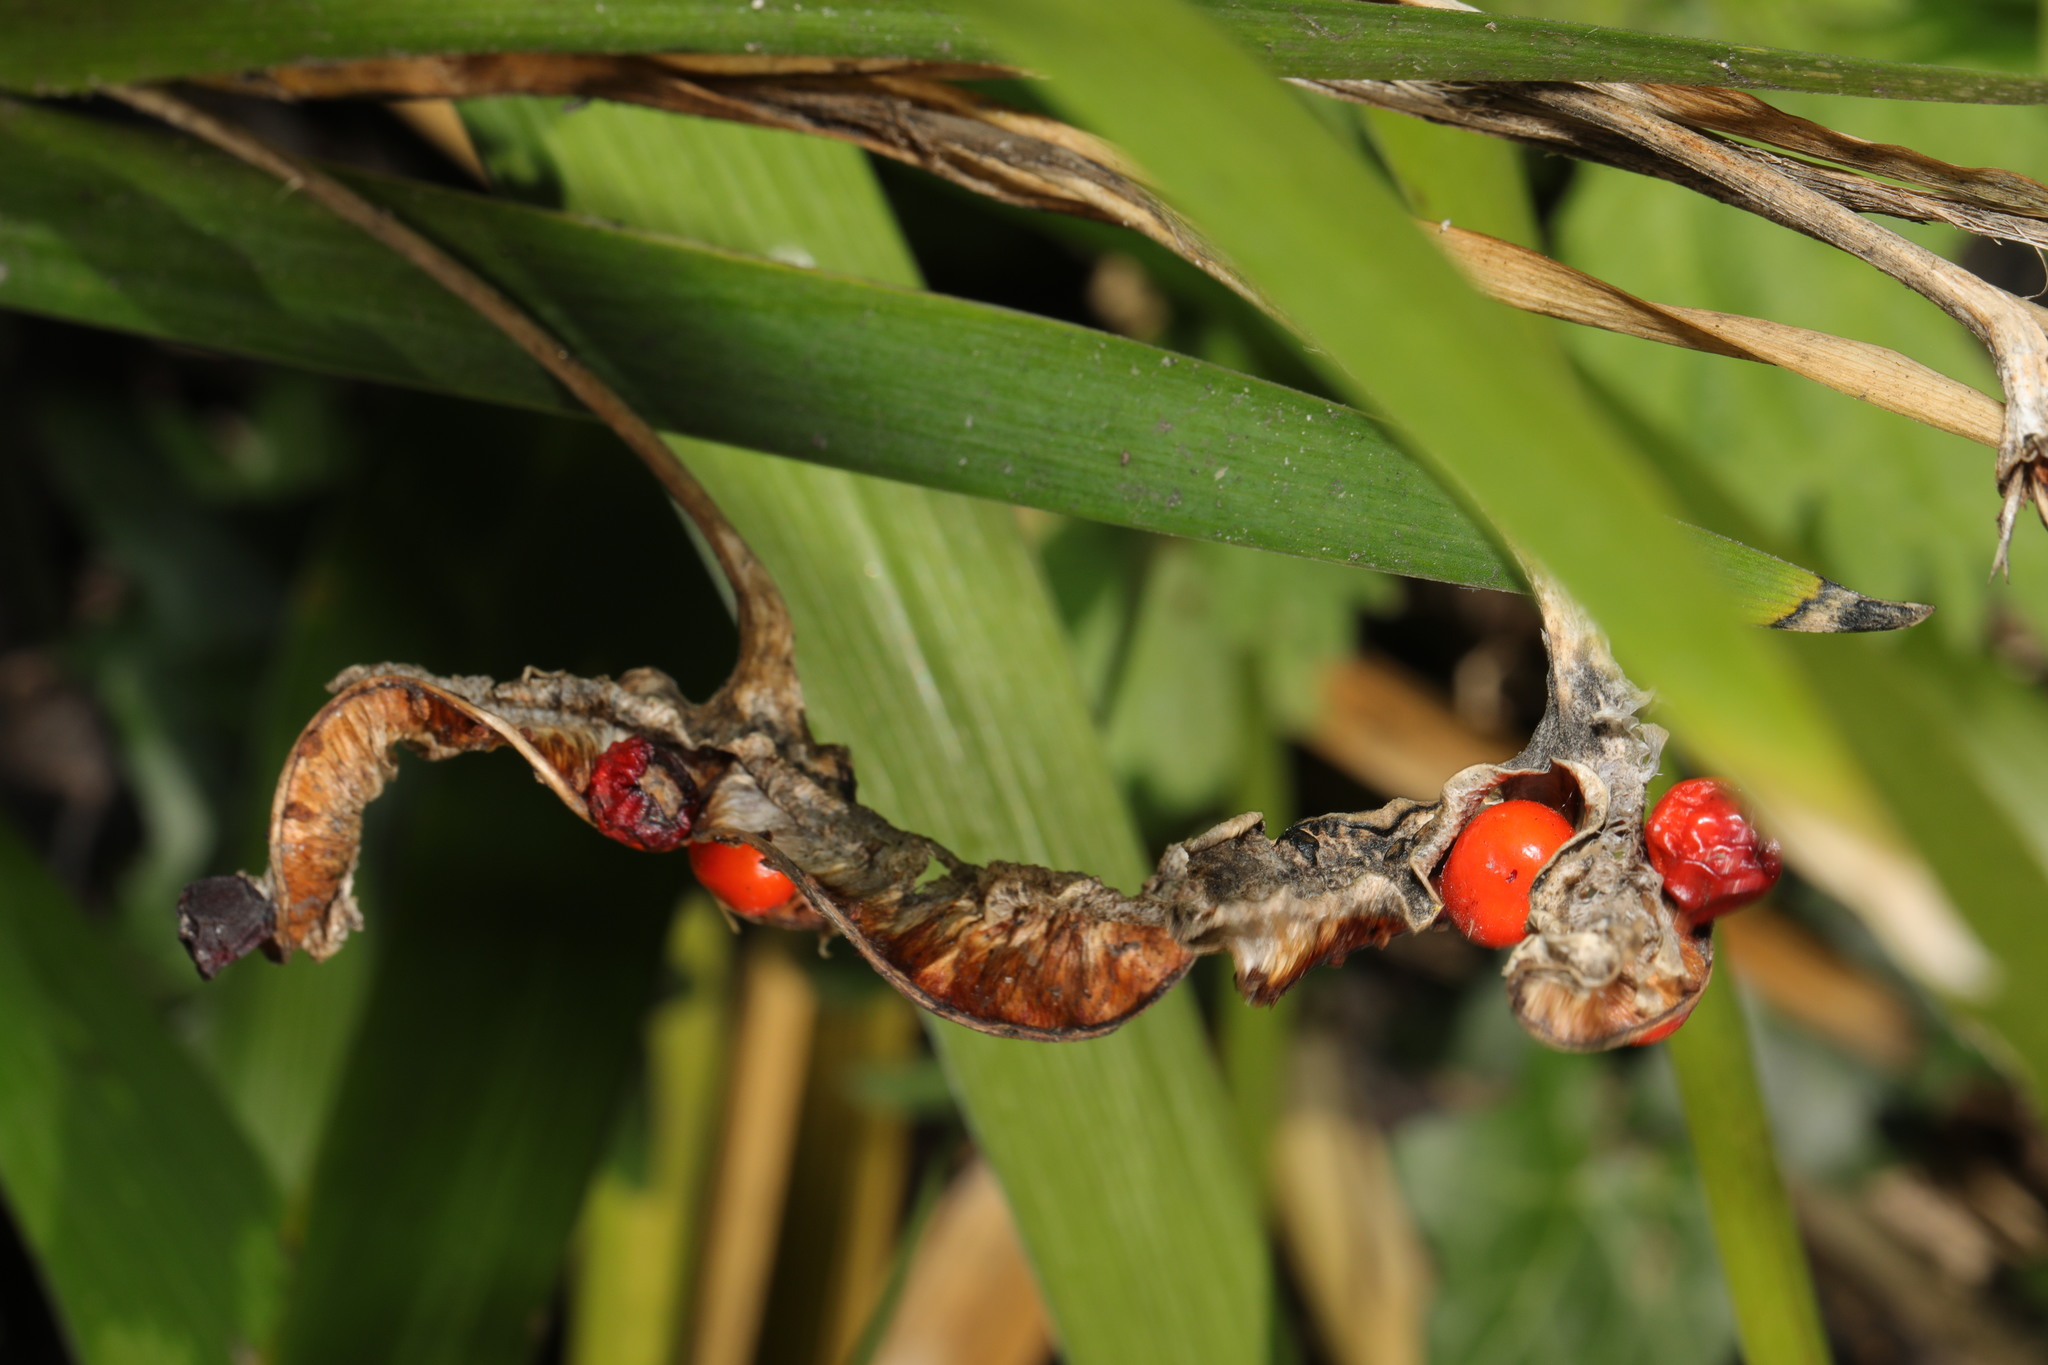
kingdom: Plantae
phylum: Tracheophyta
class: Liliopsida
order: Asparagales
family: Iridaceae
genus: Iris
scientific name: Iris foetidissima
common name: Stinking iris
